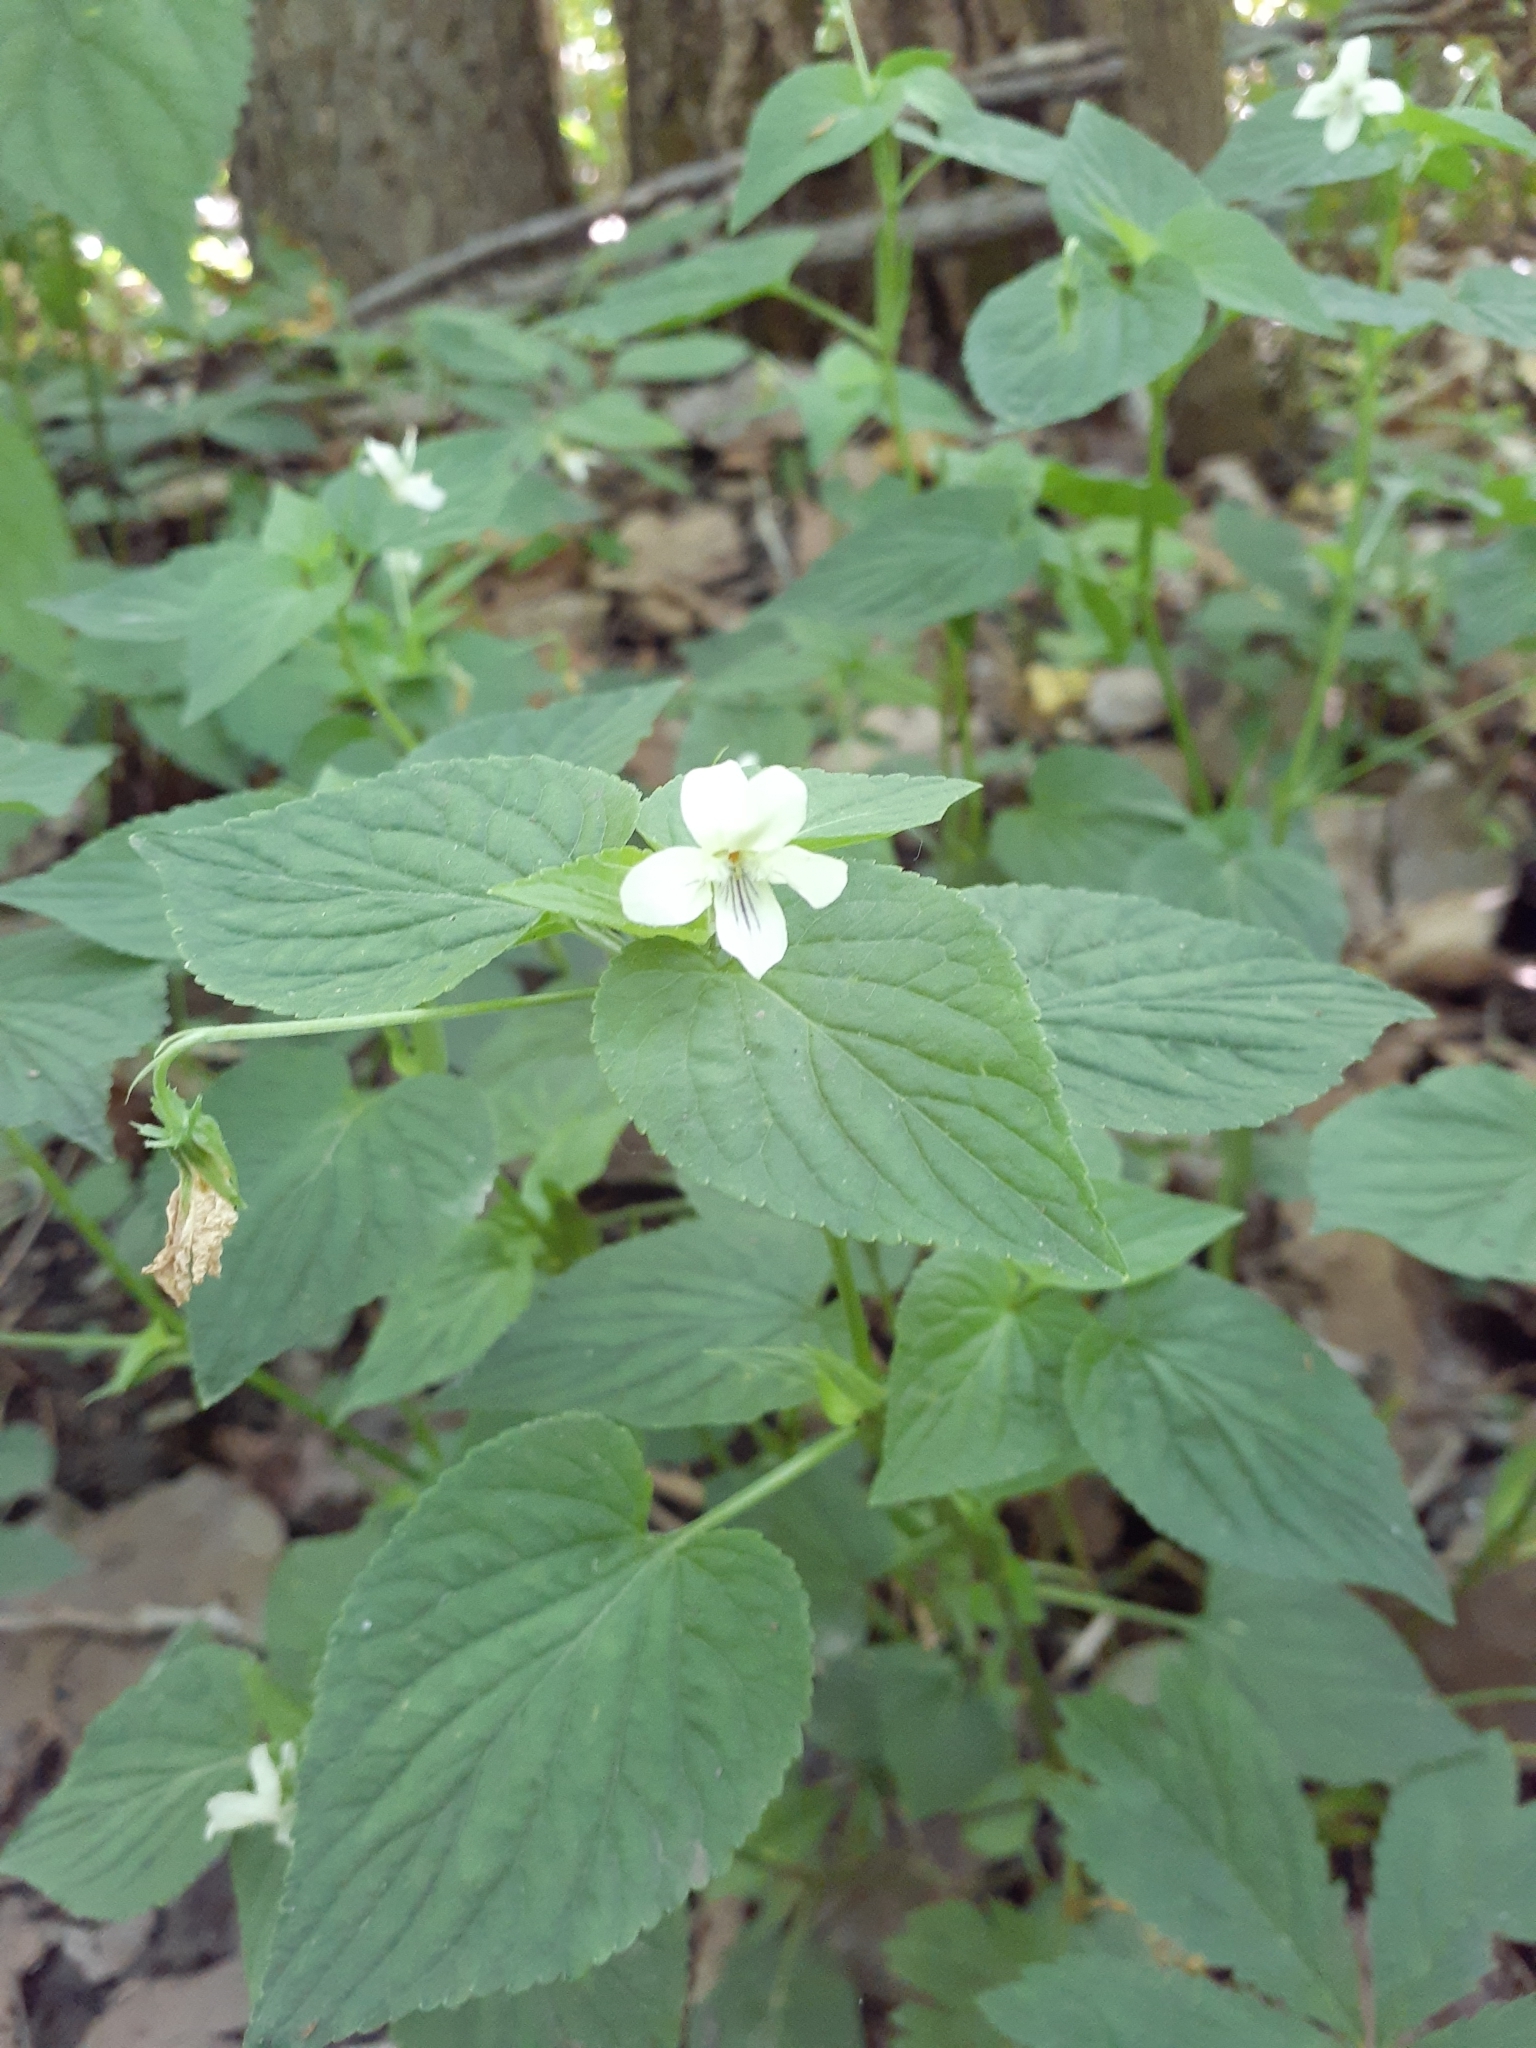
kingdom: Plantae
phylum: Tracheophyta
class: Magnoliopsida
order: Malpighiales
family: Violaceae
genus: Viola
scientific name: Viola striata
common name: Cream violet
